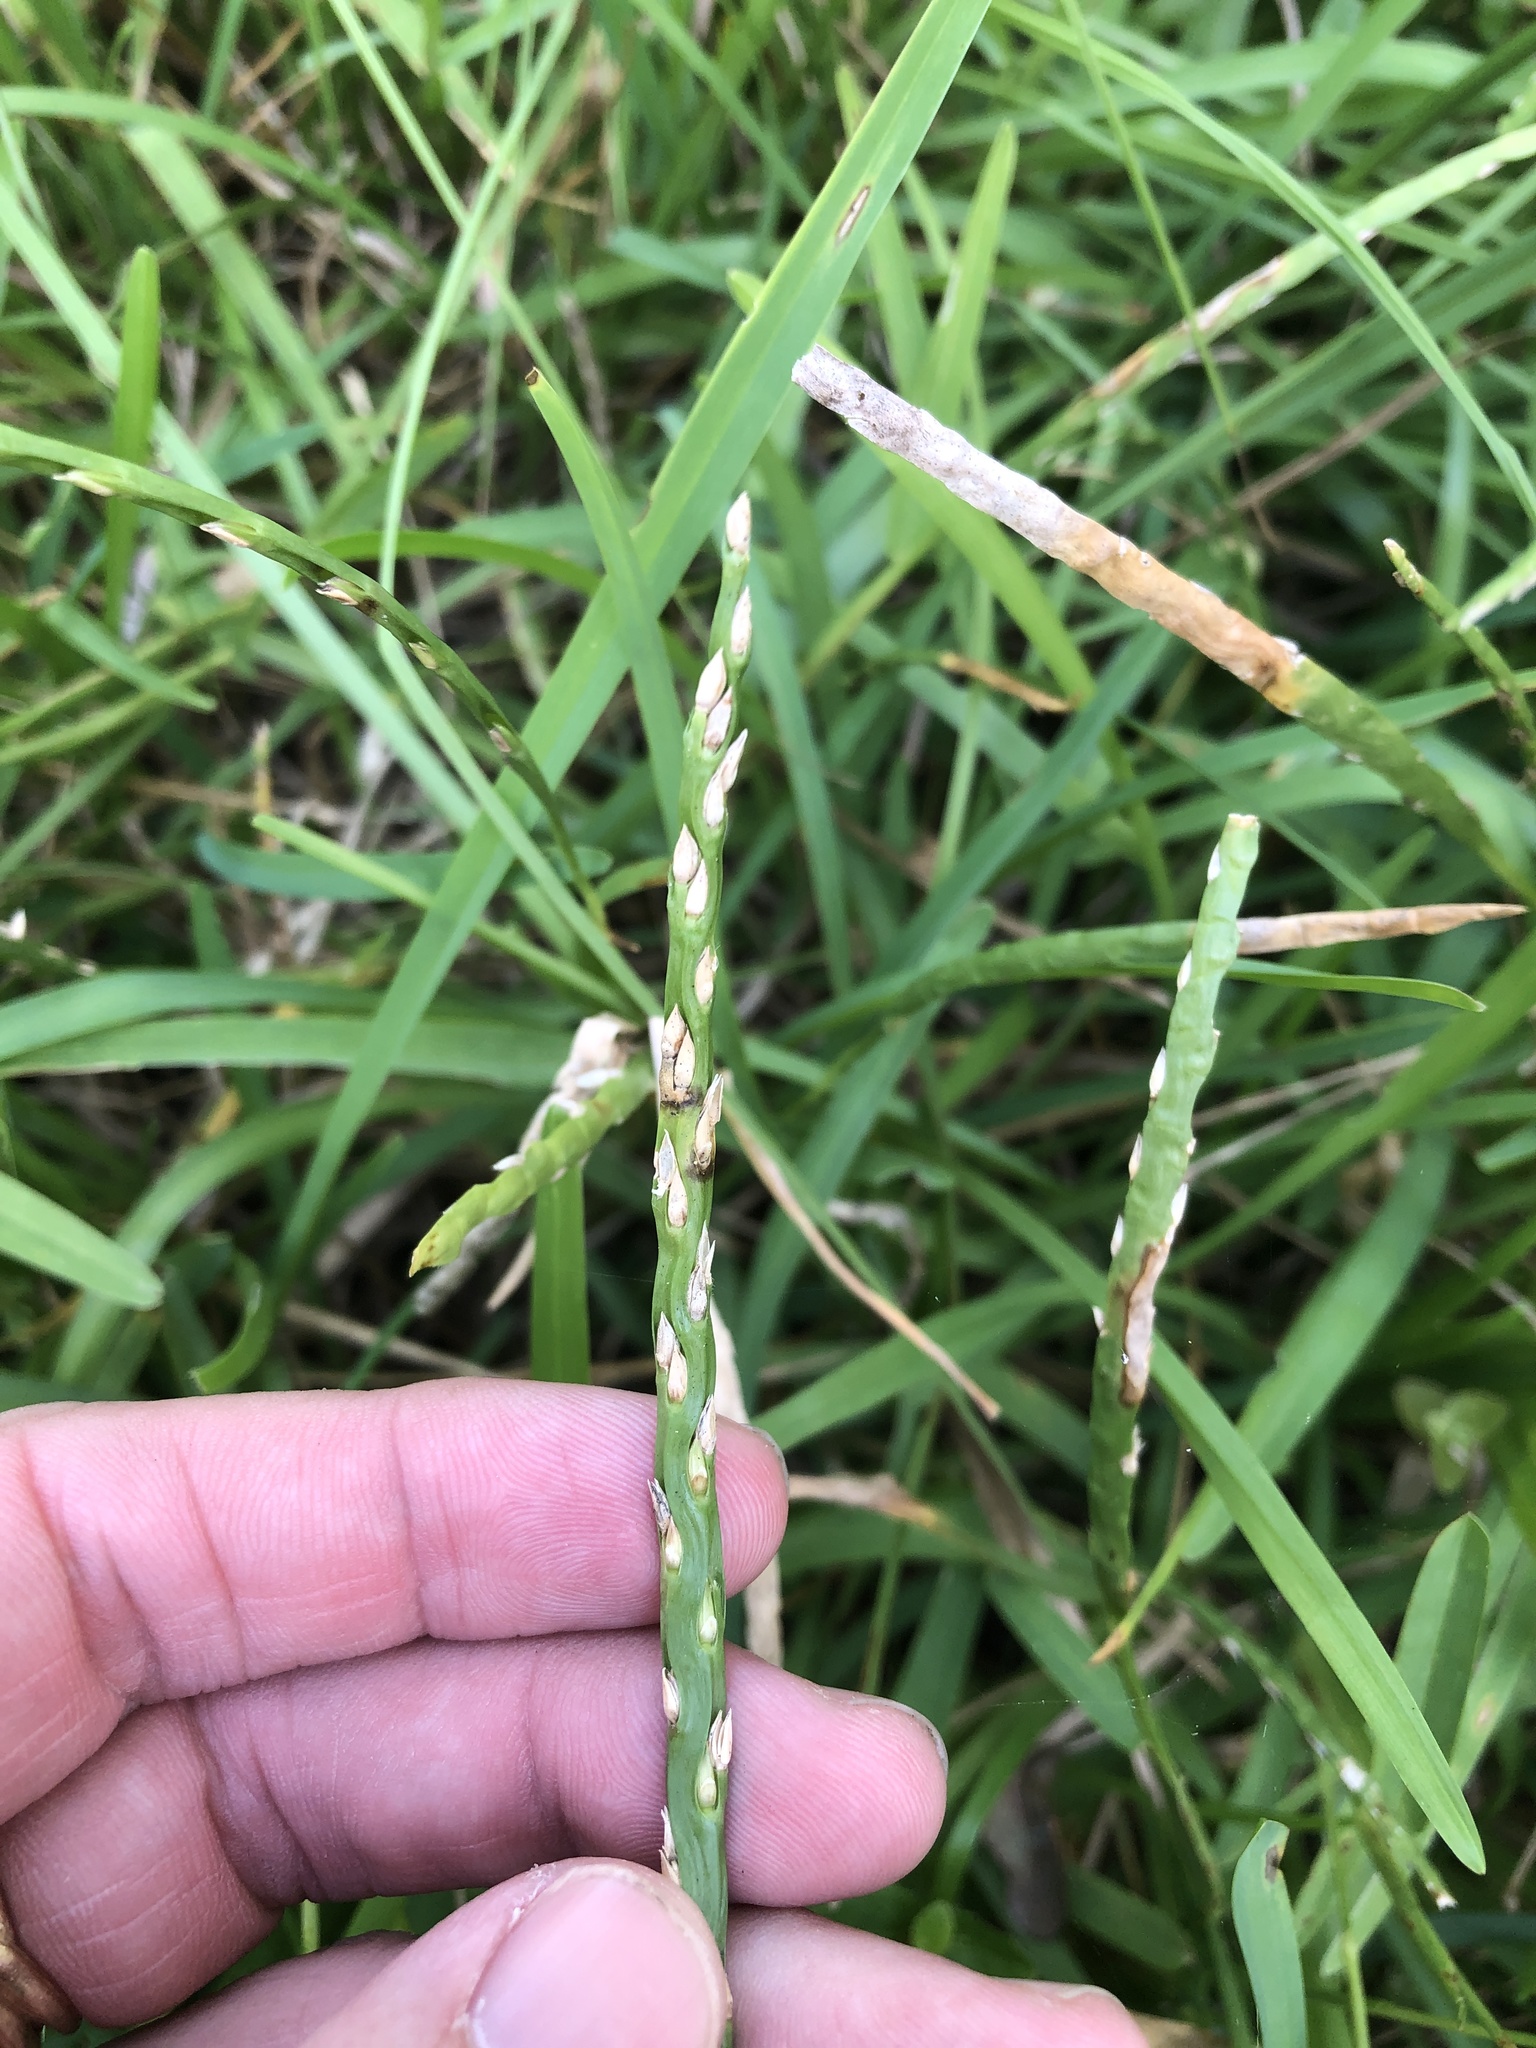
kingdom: Plantae
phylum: Tracheophyta
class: Liliopsida
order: Poales
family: Poaceae
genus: Stenotaphrum
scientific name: Stenotaphrum secundatum
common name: St. augustine grass
